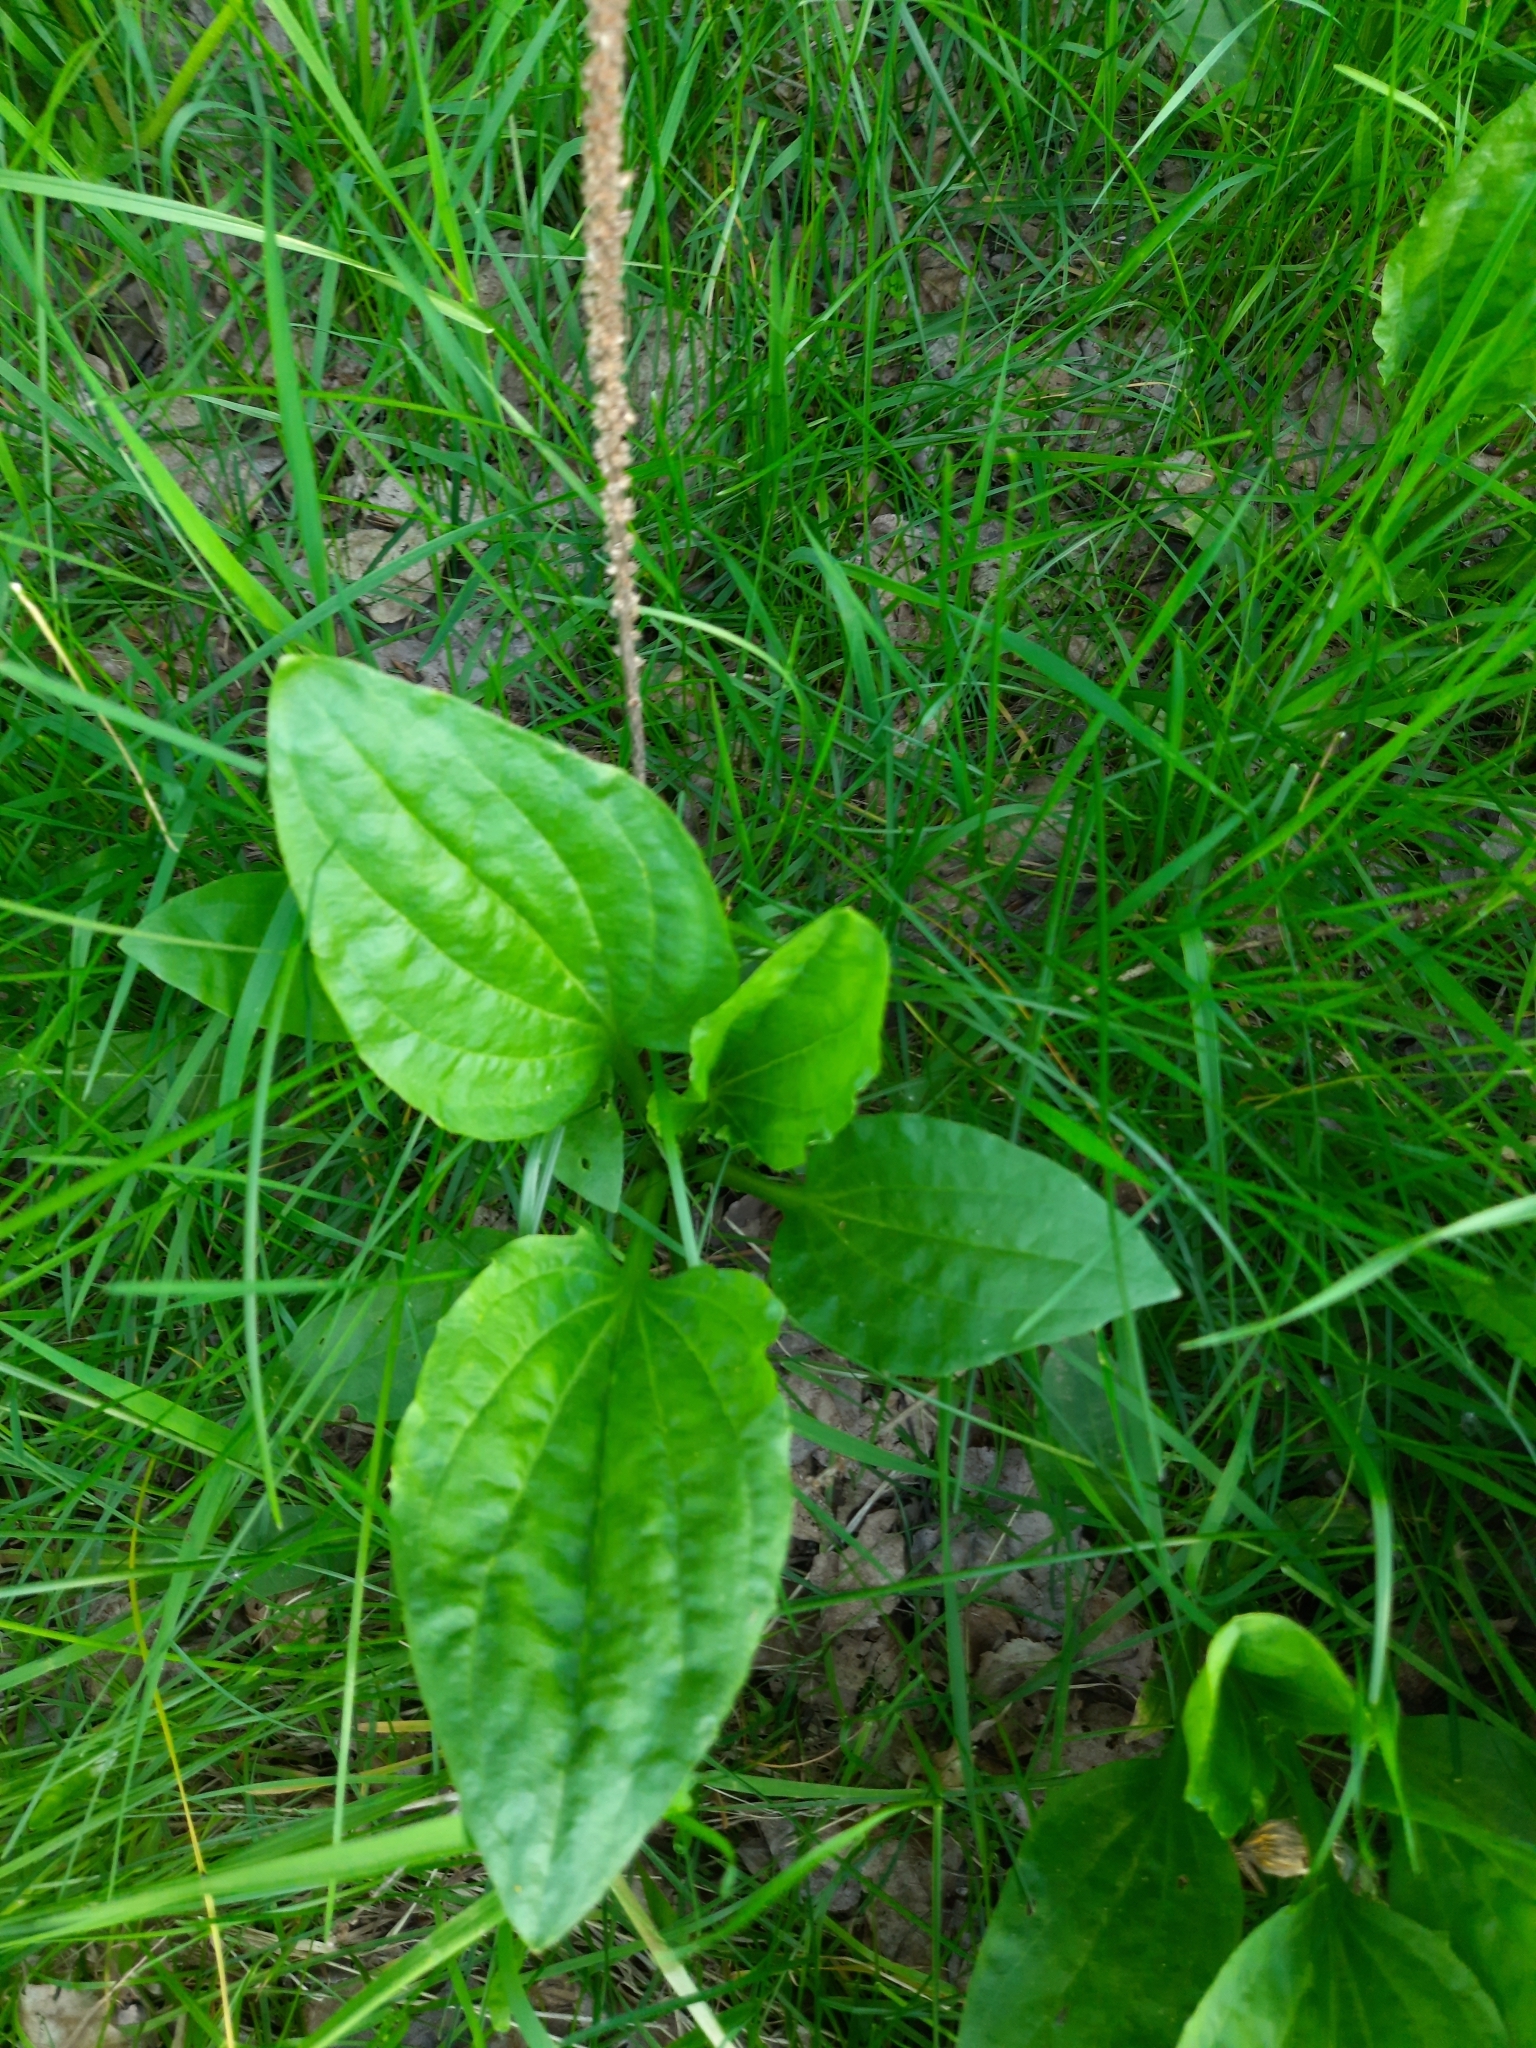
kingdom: Plantae
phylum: Tracheophyta
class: Magnoliopsida
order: Lamiales
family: Plantaginaceae
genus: Plantago
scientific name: Plantago major
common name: Common plantain
